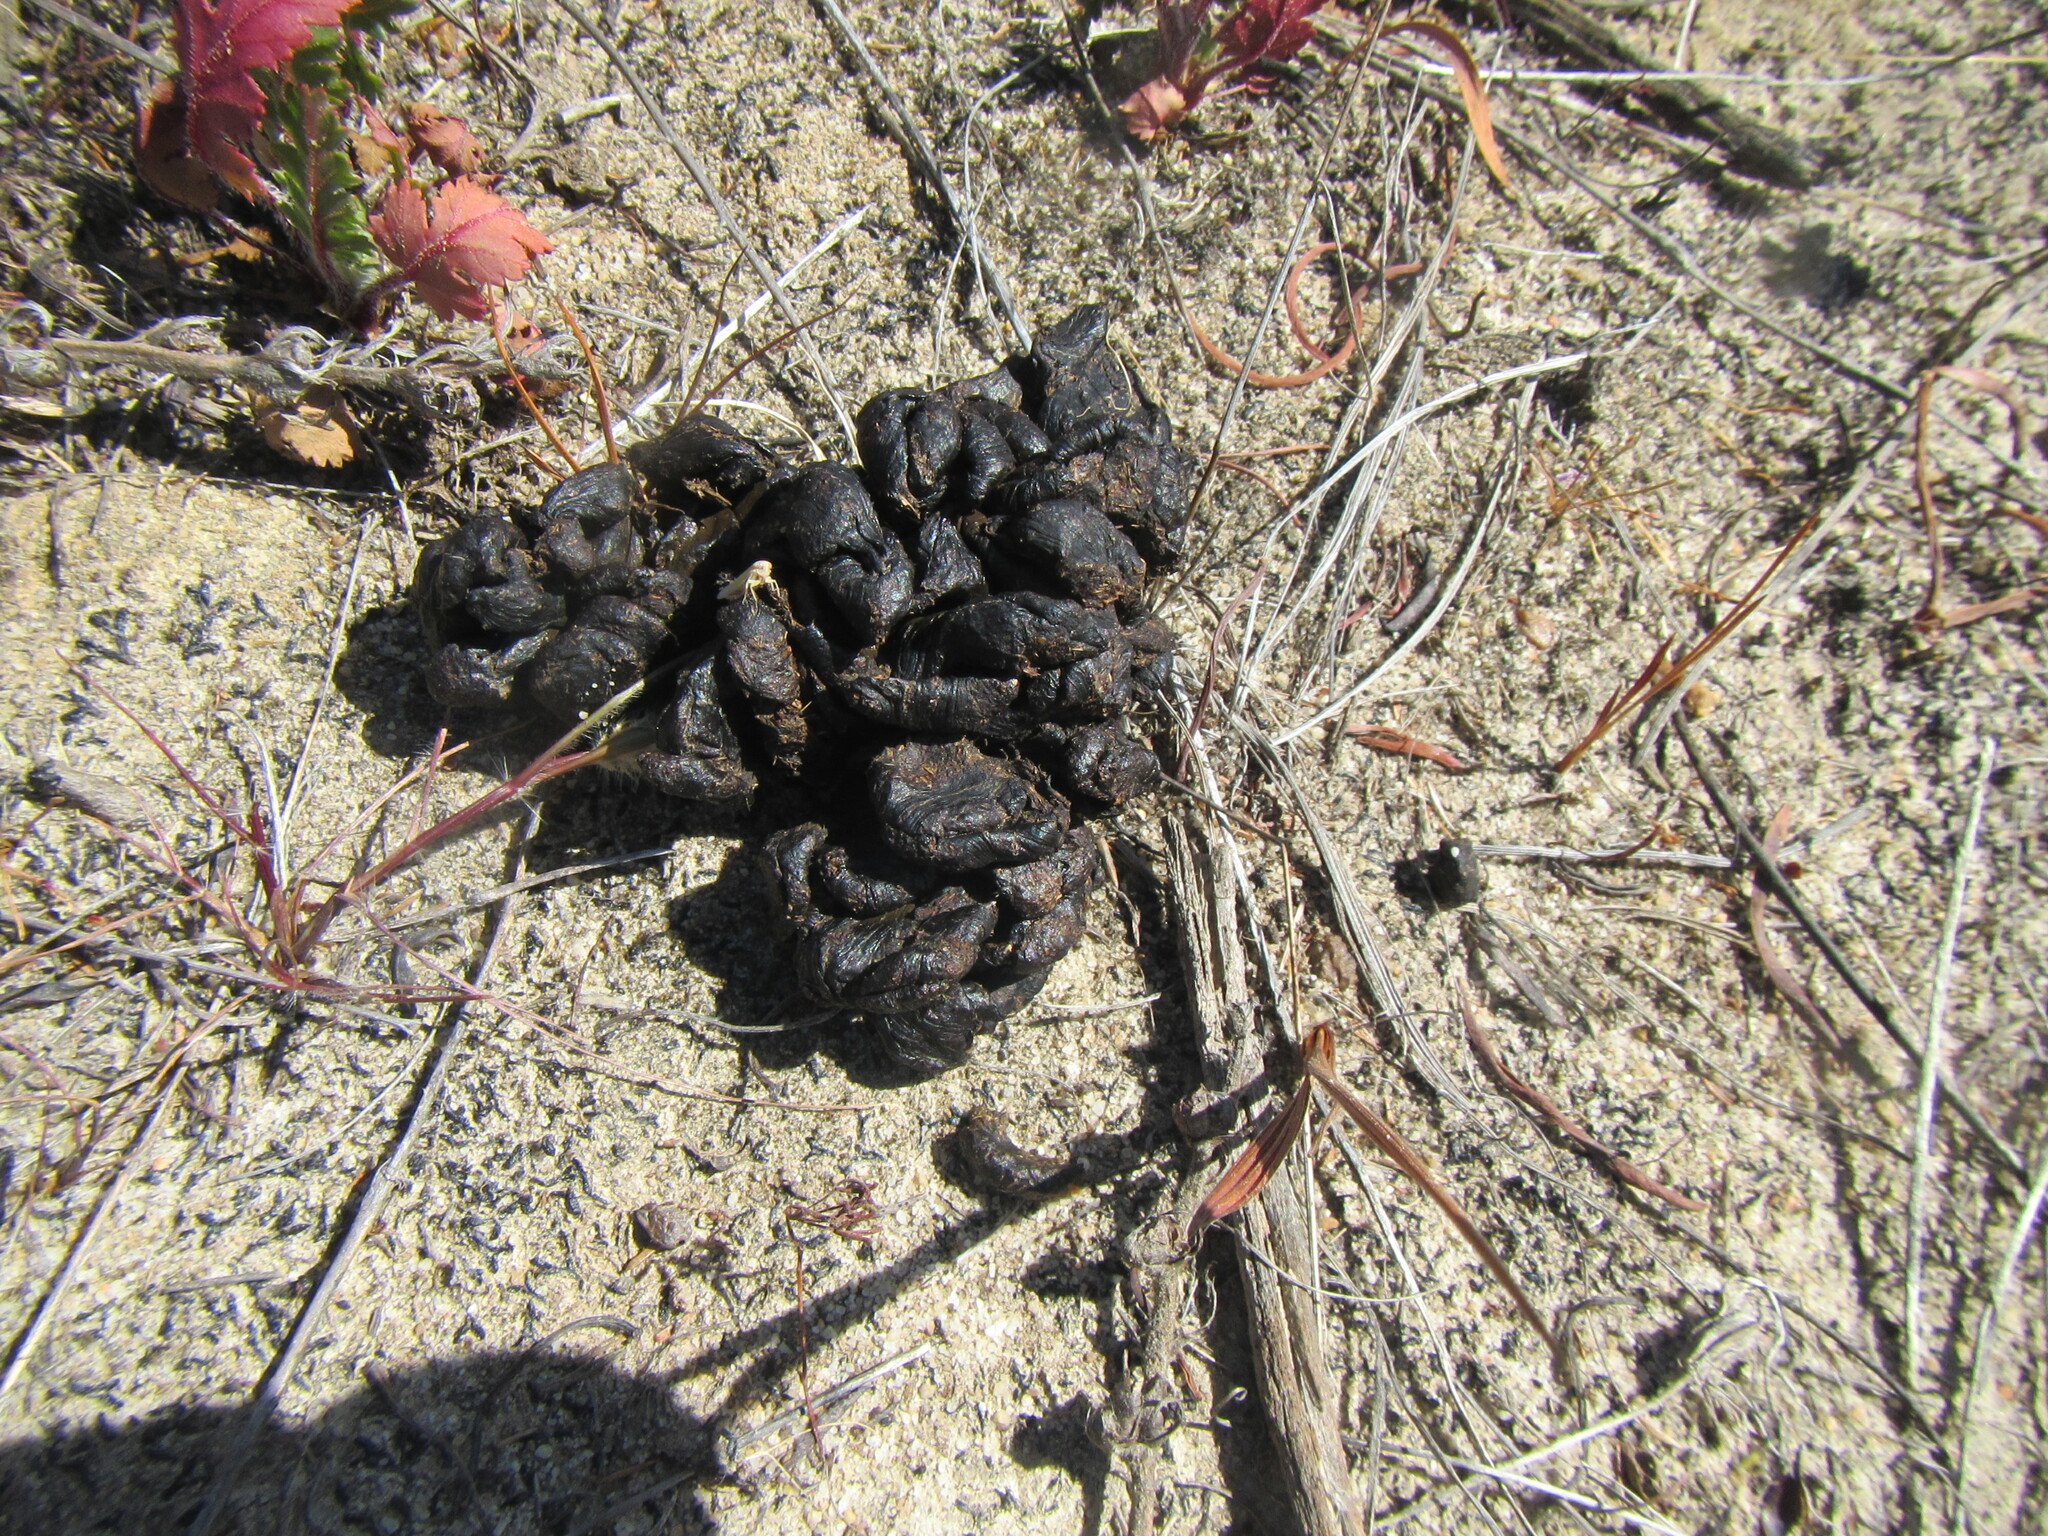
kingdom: Animalia
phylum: Chordata
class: Mammalia
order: Rodentia
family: Hystricidae
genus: Hystrix
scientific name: Hystrix africaeaustralis
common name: Cape porcupine
